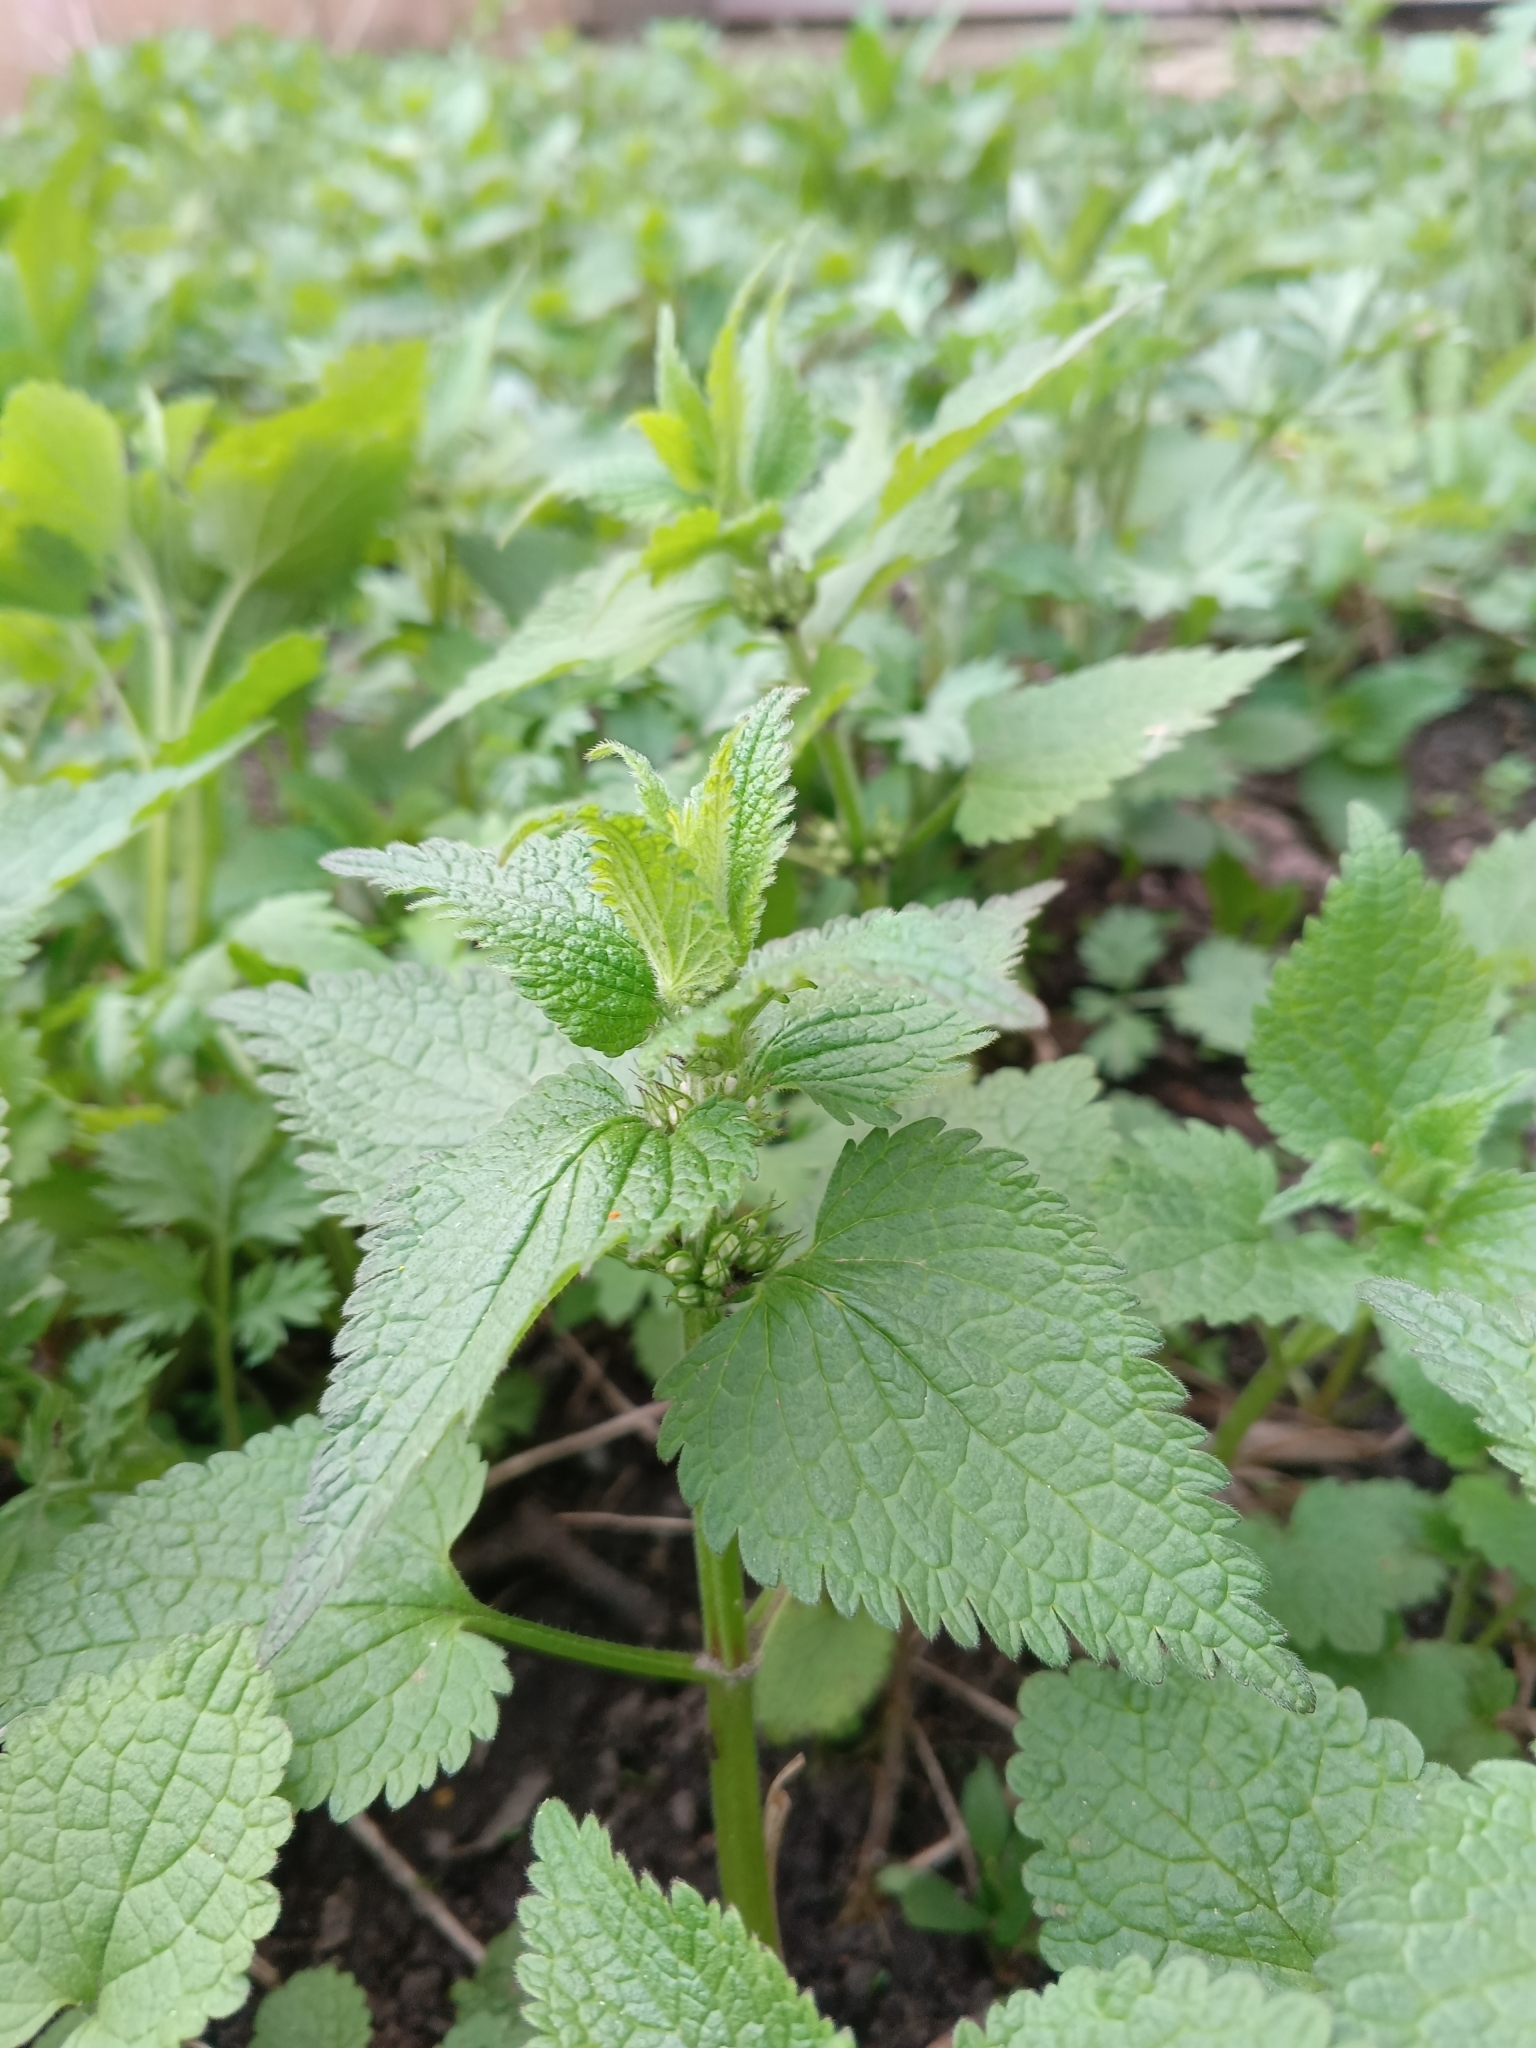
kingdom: Plantae
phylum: Tracheophyta
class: Magnoliopsida
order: Lamiales
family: Lamiaceae
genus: Lamium
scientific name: Lamium album
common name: White dead-nettle
